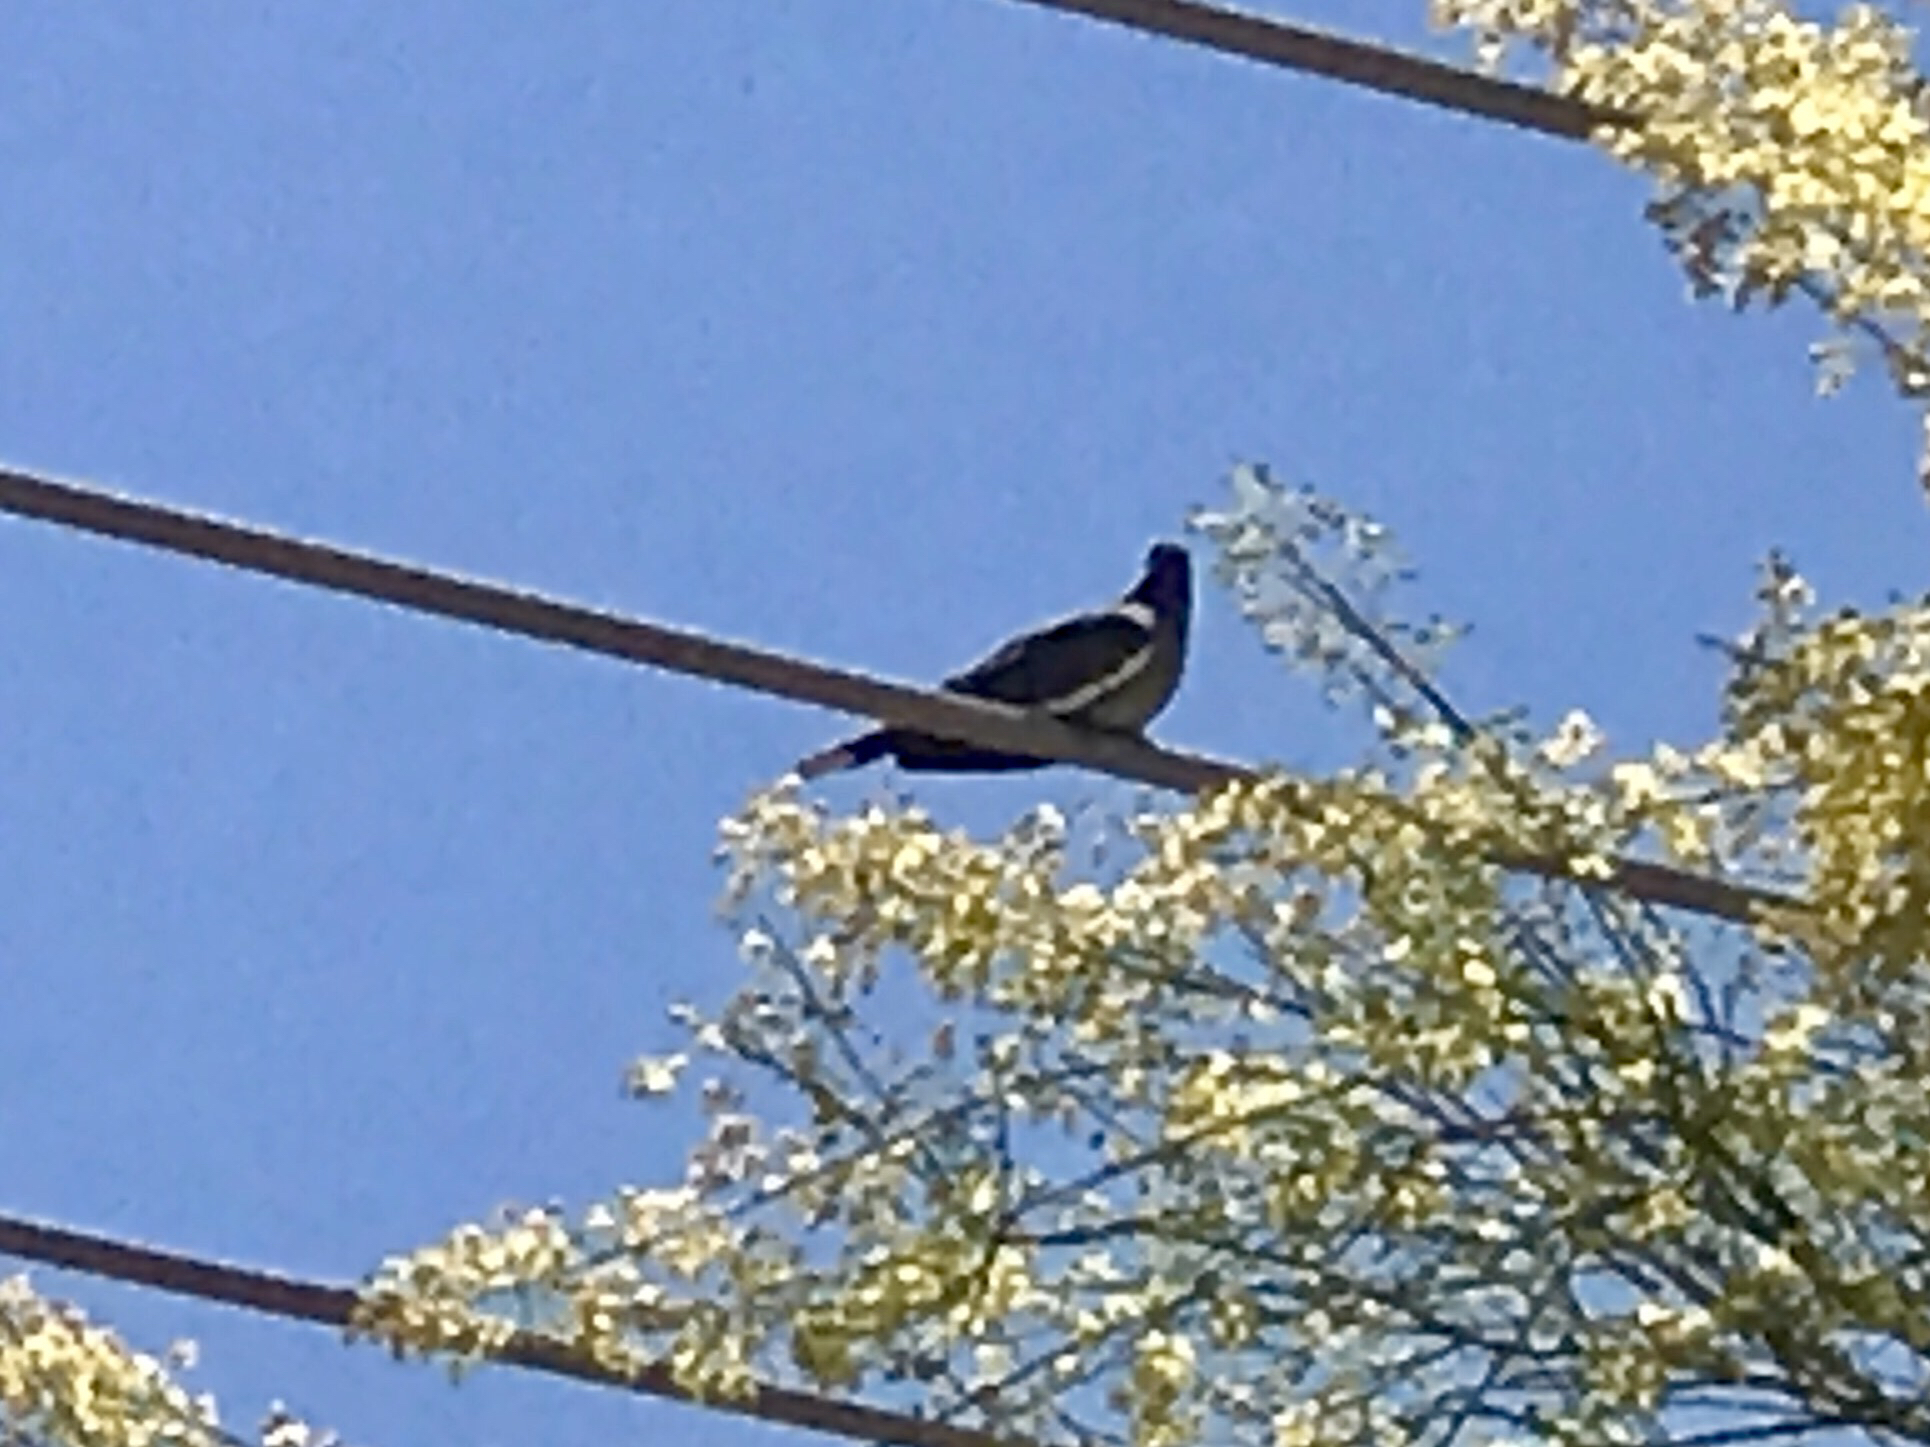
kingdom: Animalia
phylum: Chordata
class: Aves
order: Columbiformes
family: Columbidae
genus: Zenaida
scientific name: Zenaida asiatica
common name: White-winged dove
